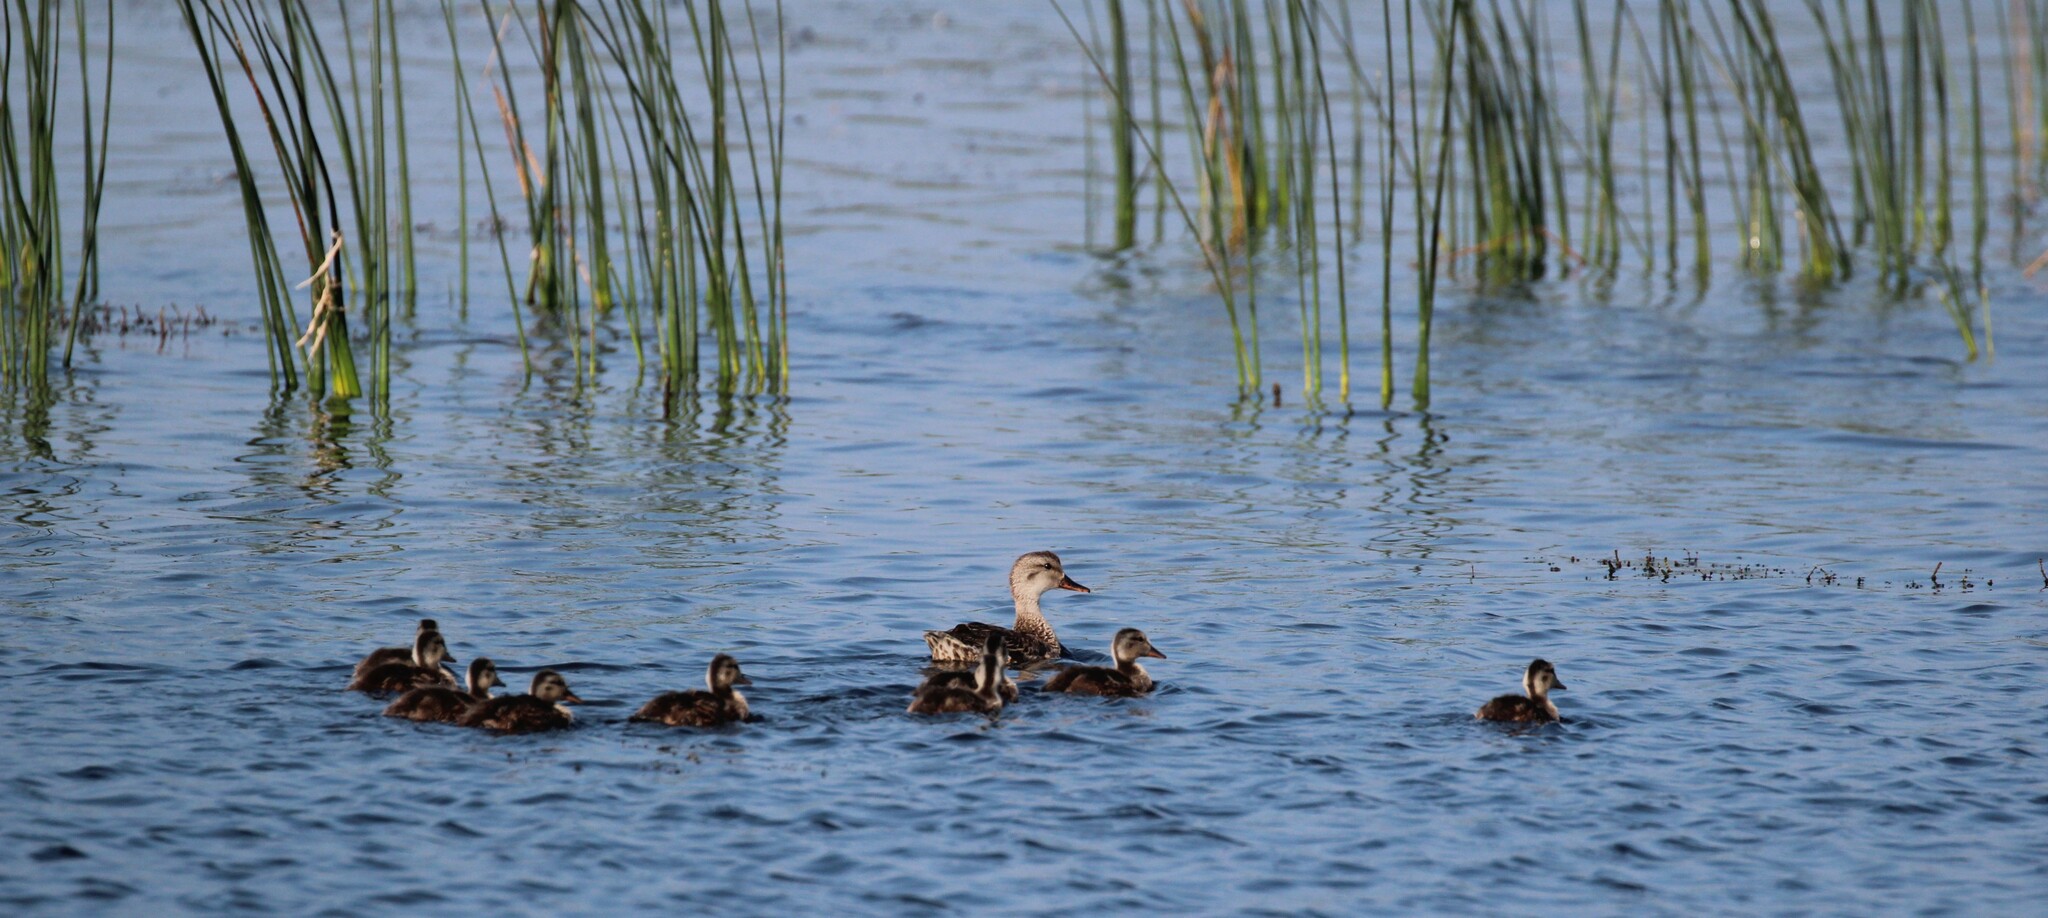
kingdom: Animalia
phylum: Chordata
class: Aves
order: Anseriformes
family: Anatidae
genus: Mareca
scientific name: Mareca strepera
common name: Gadwall
